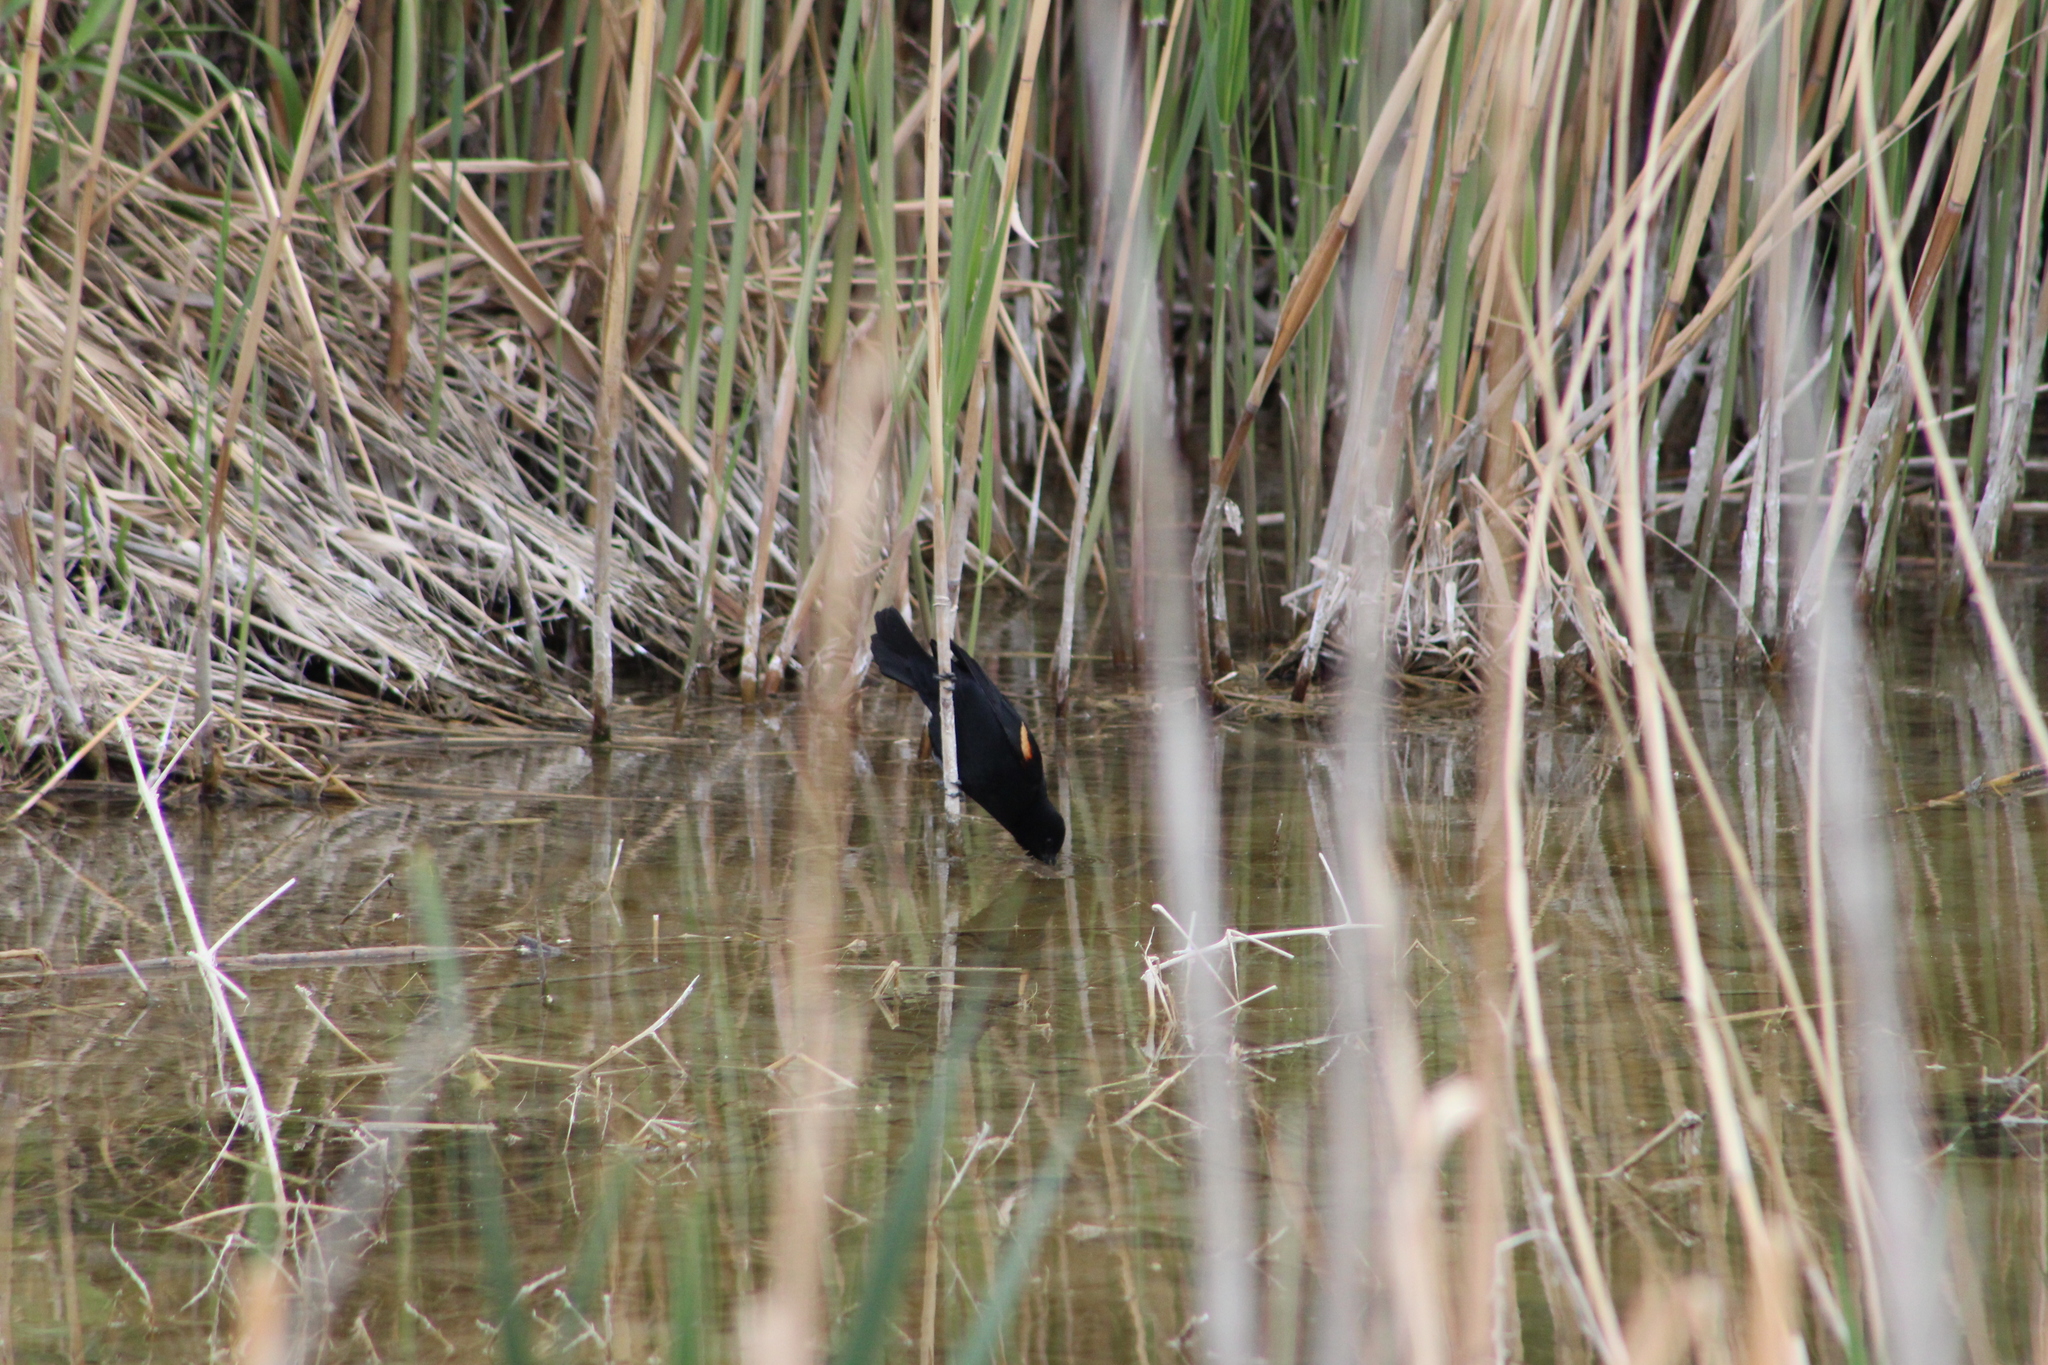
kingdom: Animalia
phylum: Chordata
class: Aves
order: Passeriformes
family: Icteridae
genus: Agelaius
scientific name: Agelaius phoeniceus
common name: Red-winged blackbird
